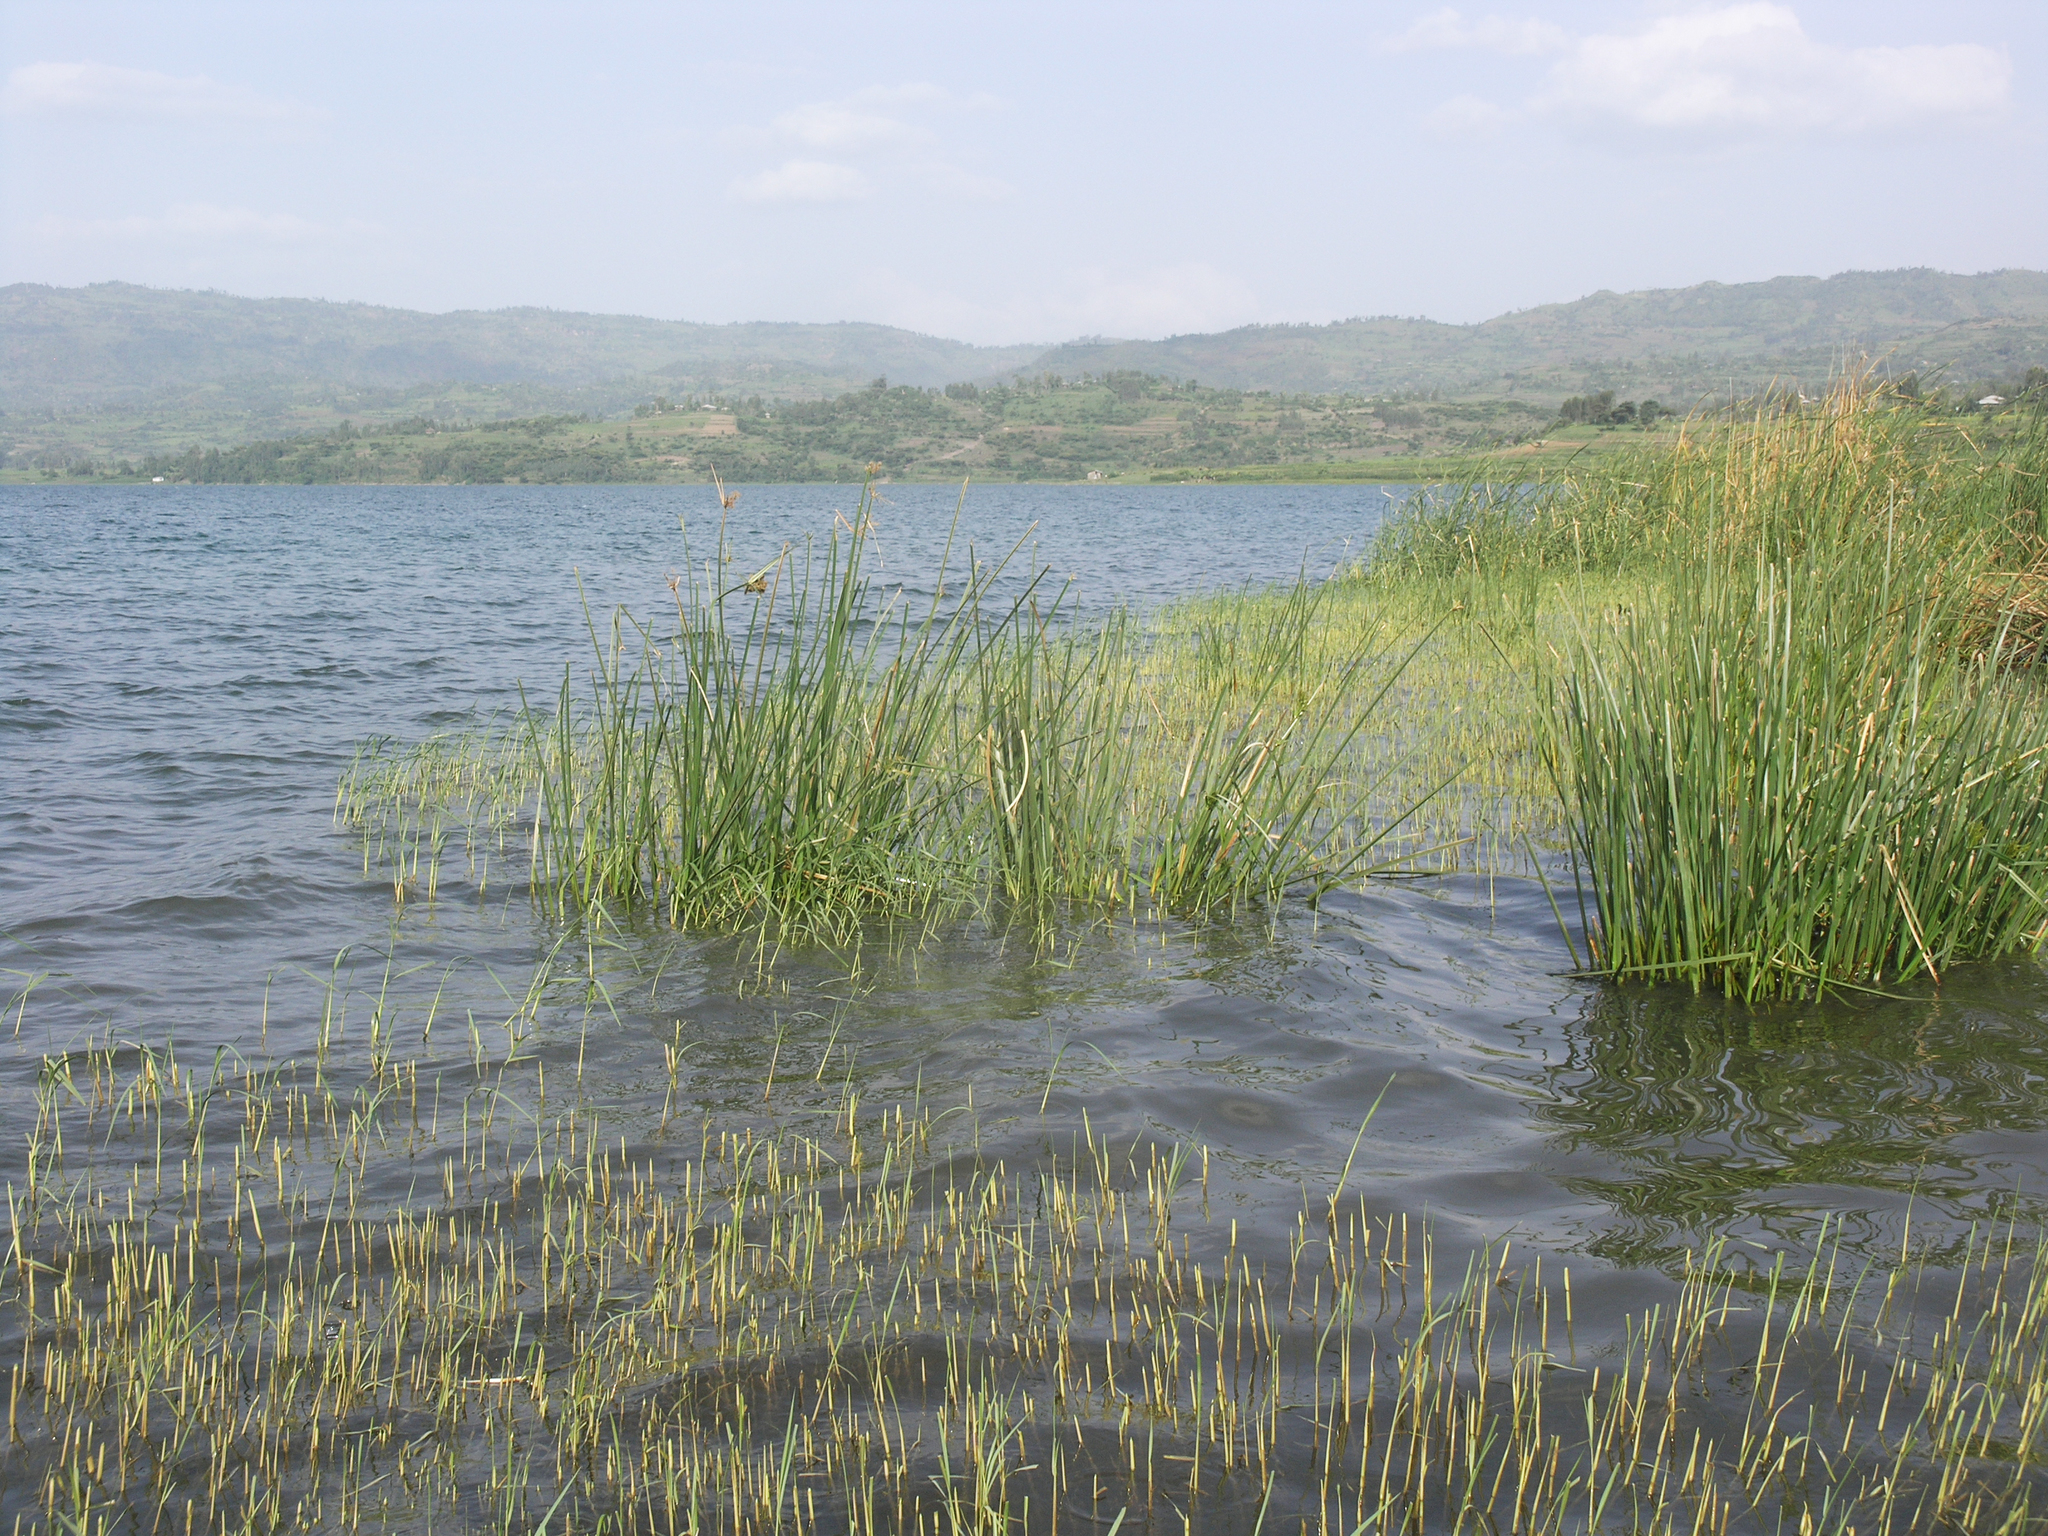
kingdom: Animalia
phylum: Arthropoda
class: Insecta
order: Odonata
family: Libellulidae
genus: Crocothemis
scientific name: Crocothemis erythraea
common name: Scarlet dragonfly
